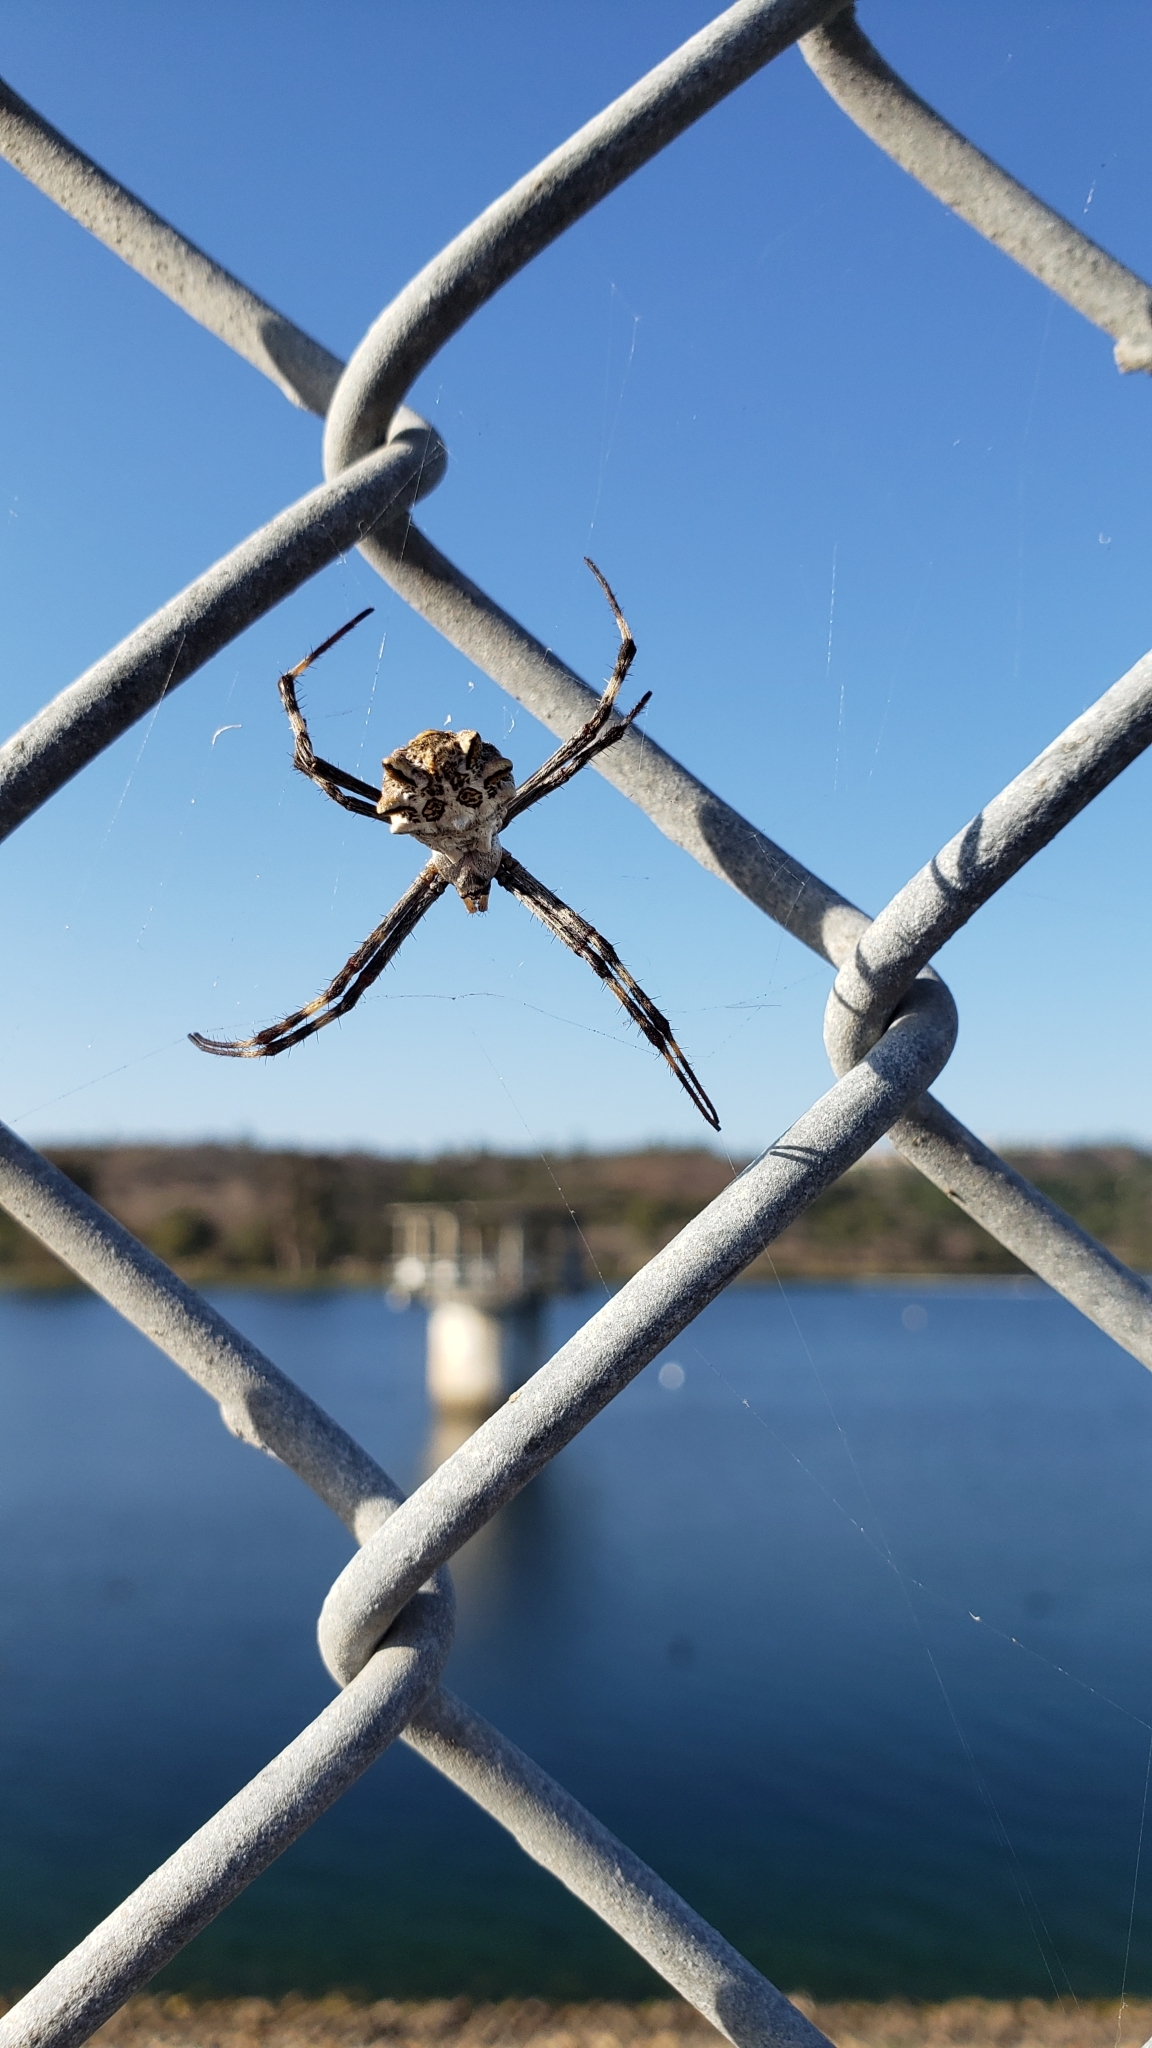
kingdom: Animalia
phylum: Arthropoda
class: Arachnida
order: Araneae
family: Araneidae
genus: Argiope
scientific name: Argiope argentata
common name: Orb weavers
